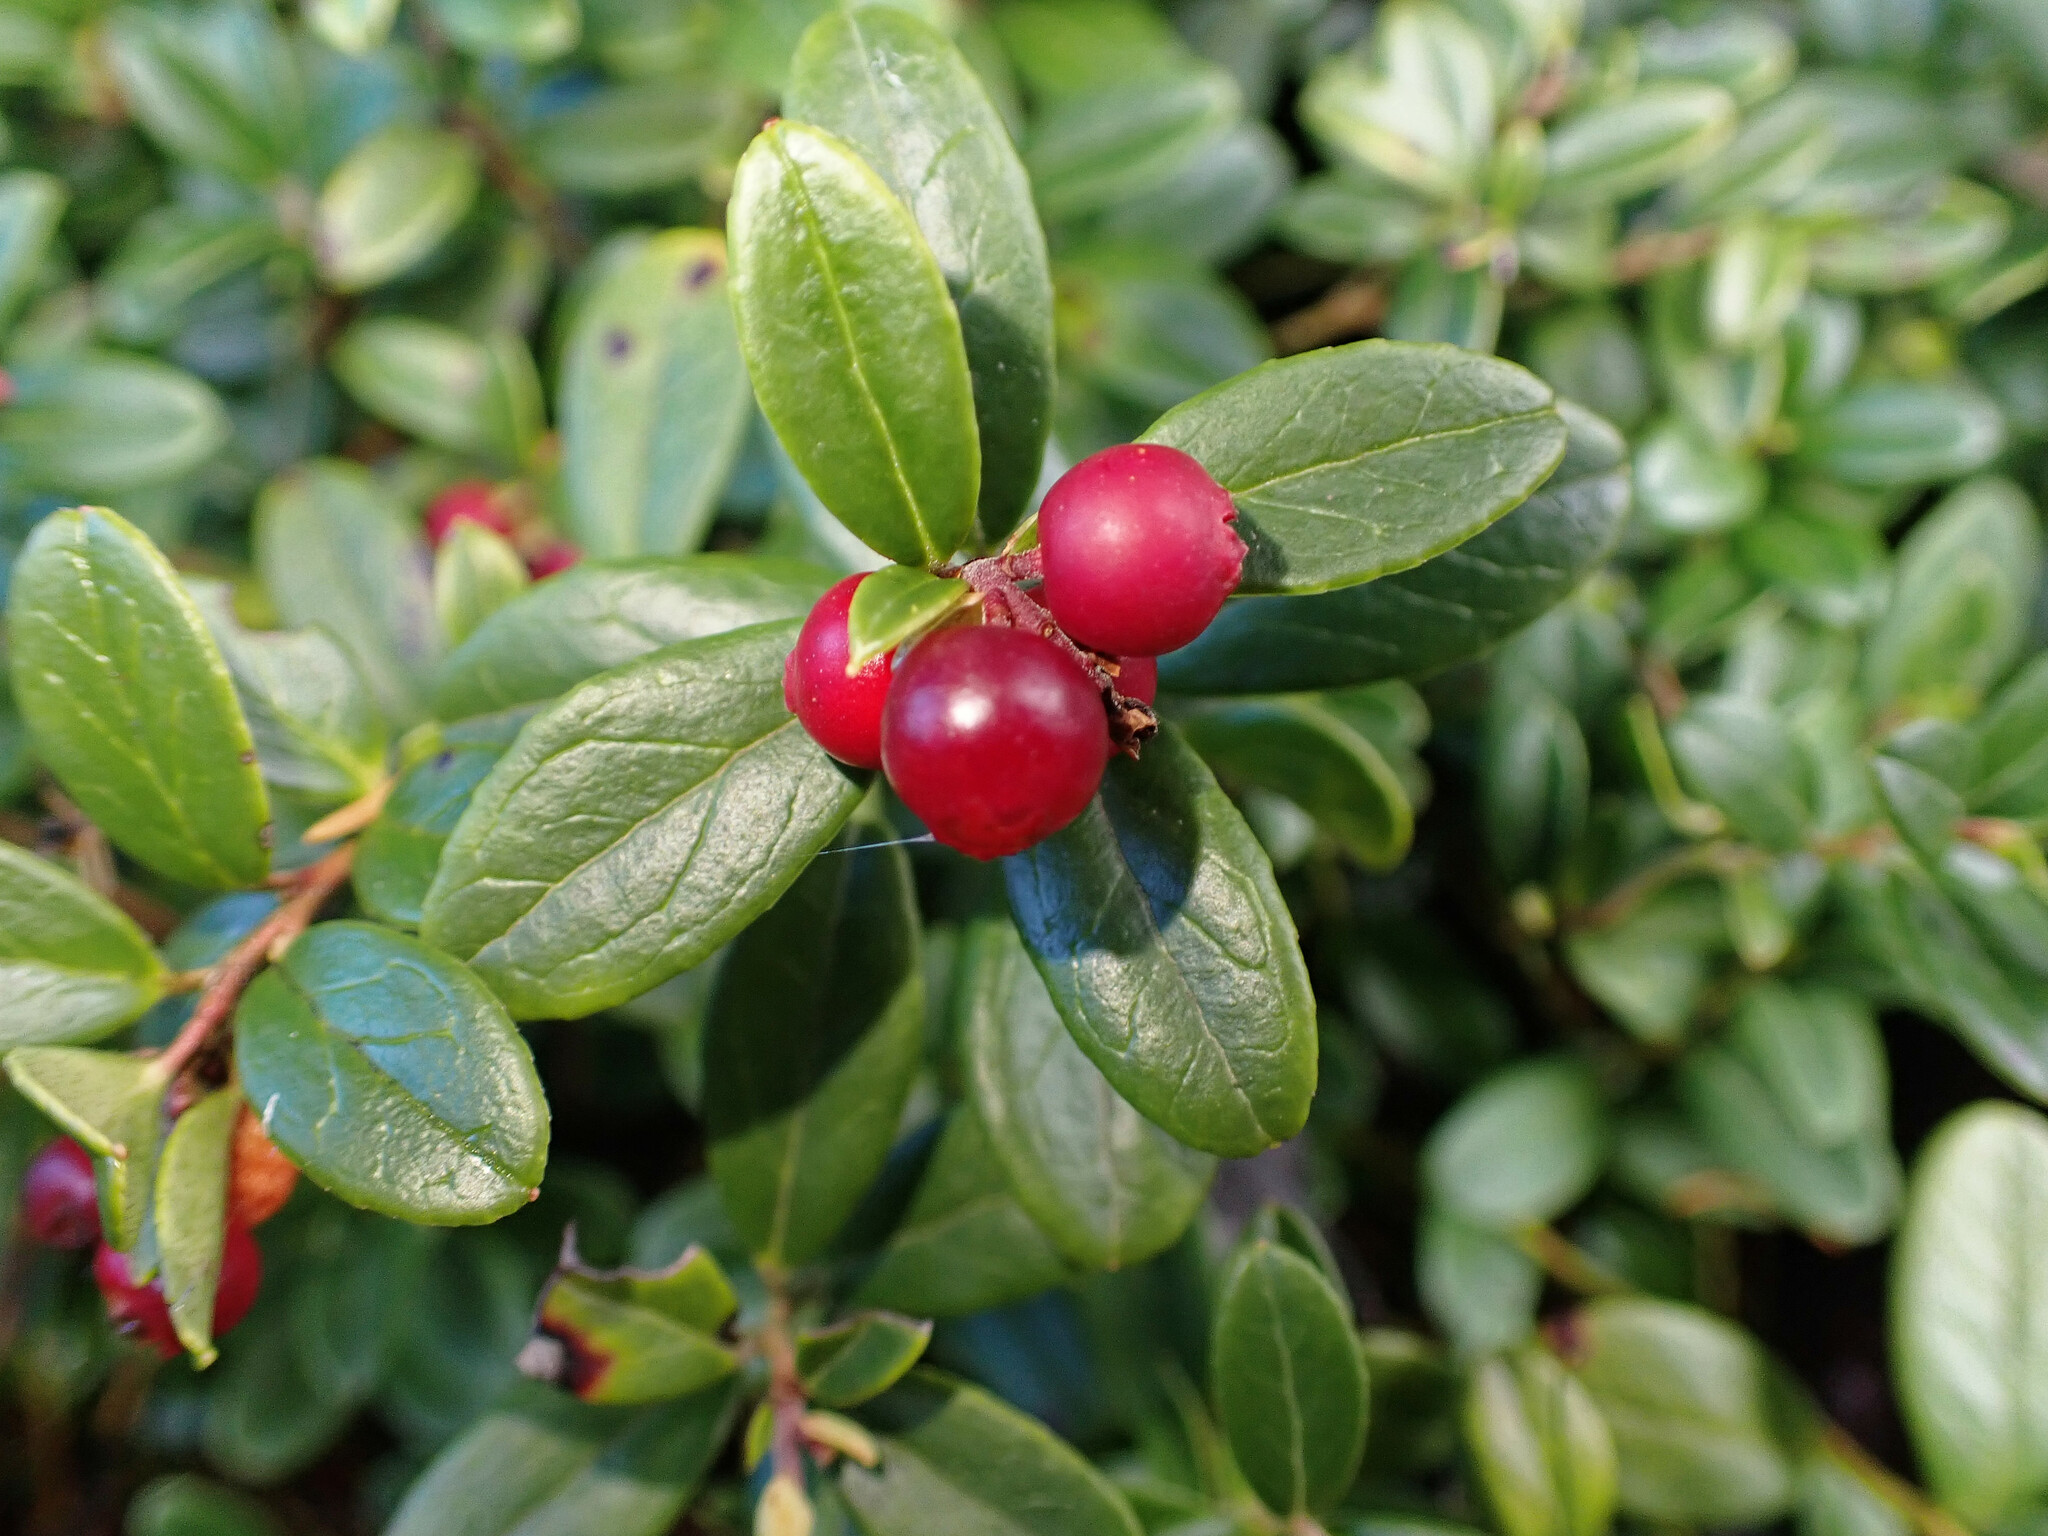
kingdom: Plantae
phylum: Tracheophyta
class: Magnoliopsida
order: Ericales
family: Ericaceae
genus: Vaccinium
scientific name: Vaccinium vitis-idaea
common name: Cowberry
